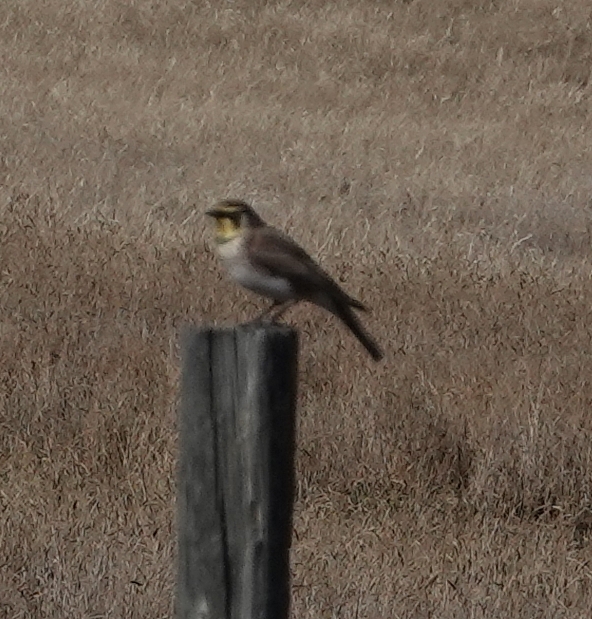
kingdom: Animalia
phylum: Chordata
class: Aves
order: Passeriformes
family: Alaudidae
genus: Eremophila
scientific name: Eremophila alpestris
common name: Horned lark
